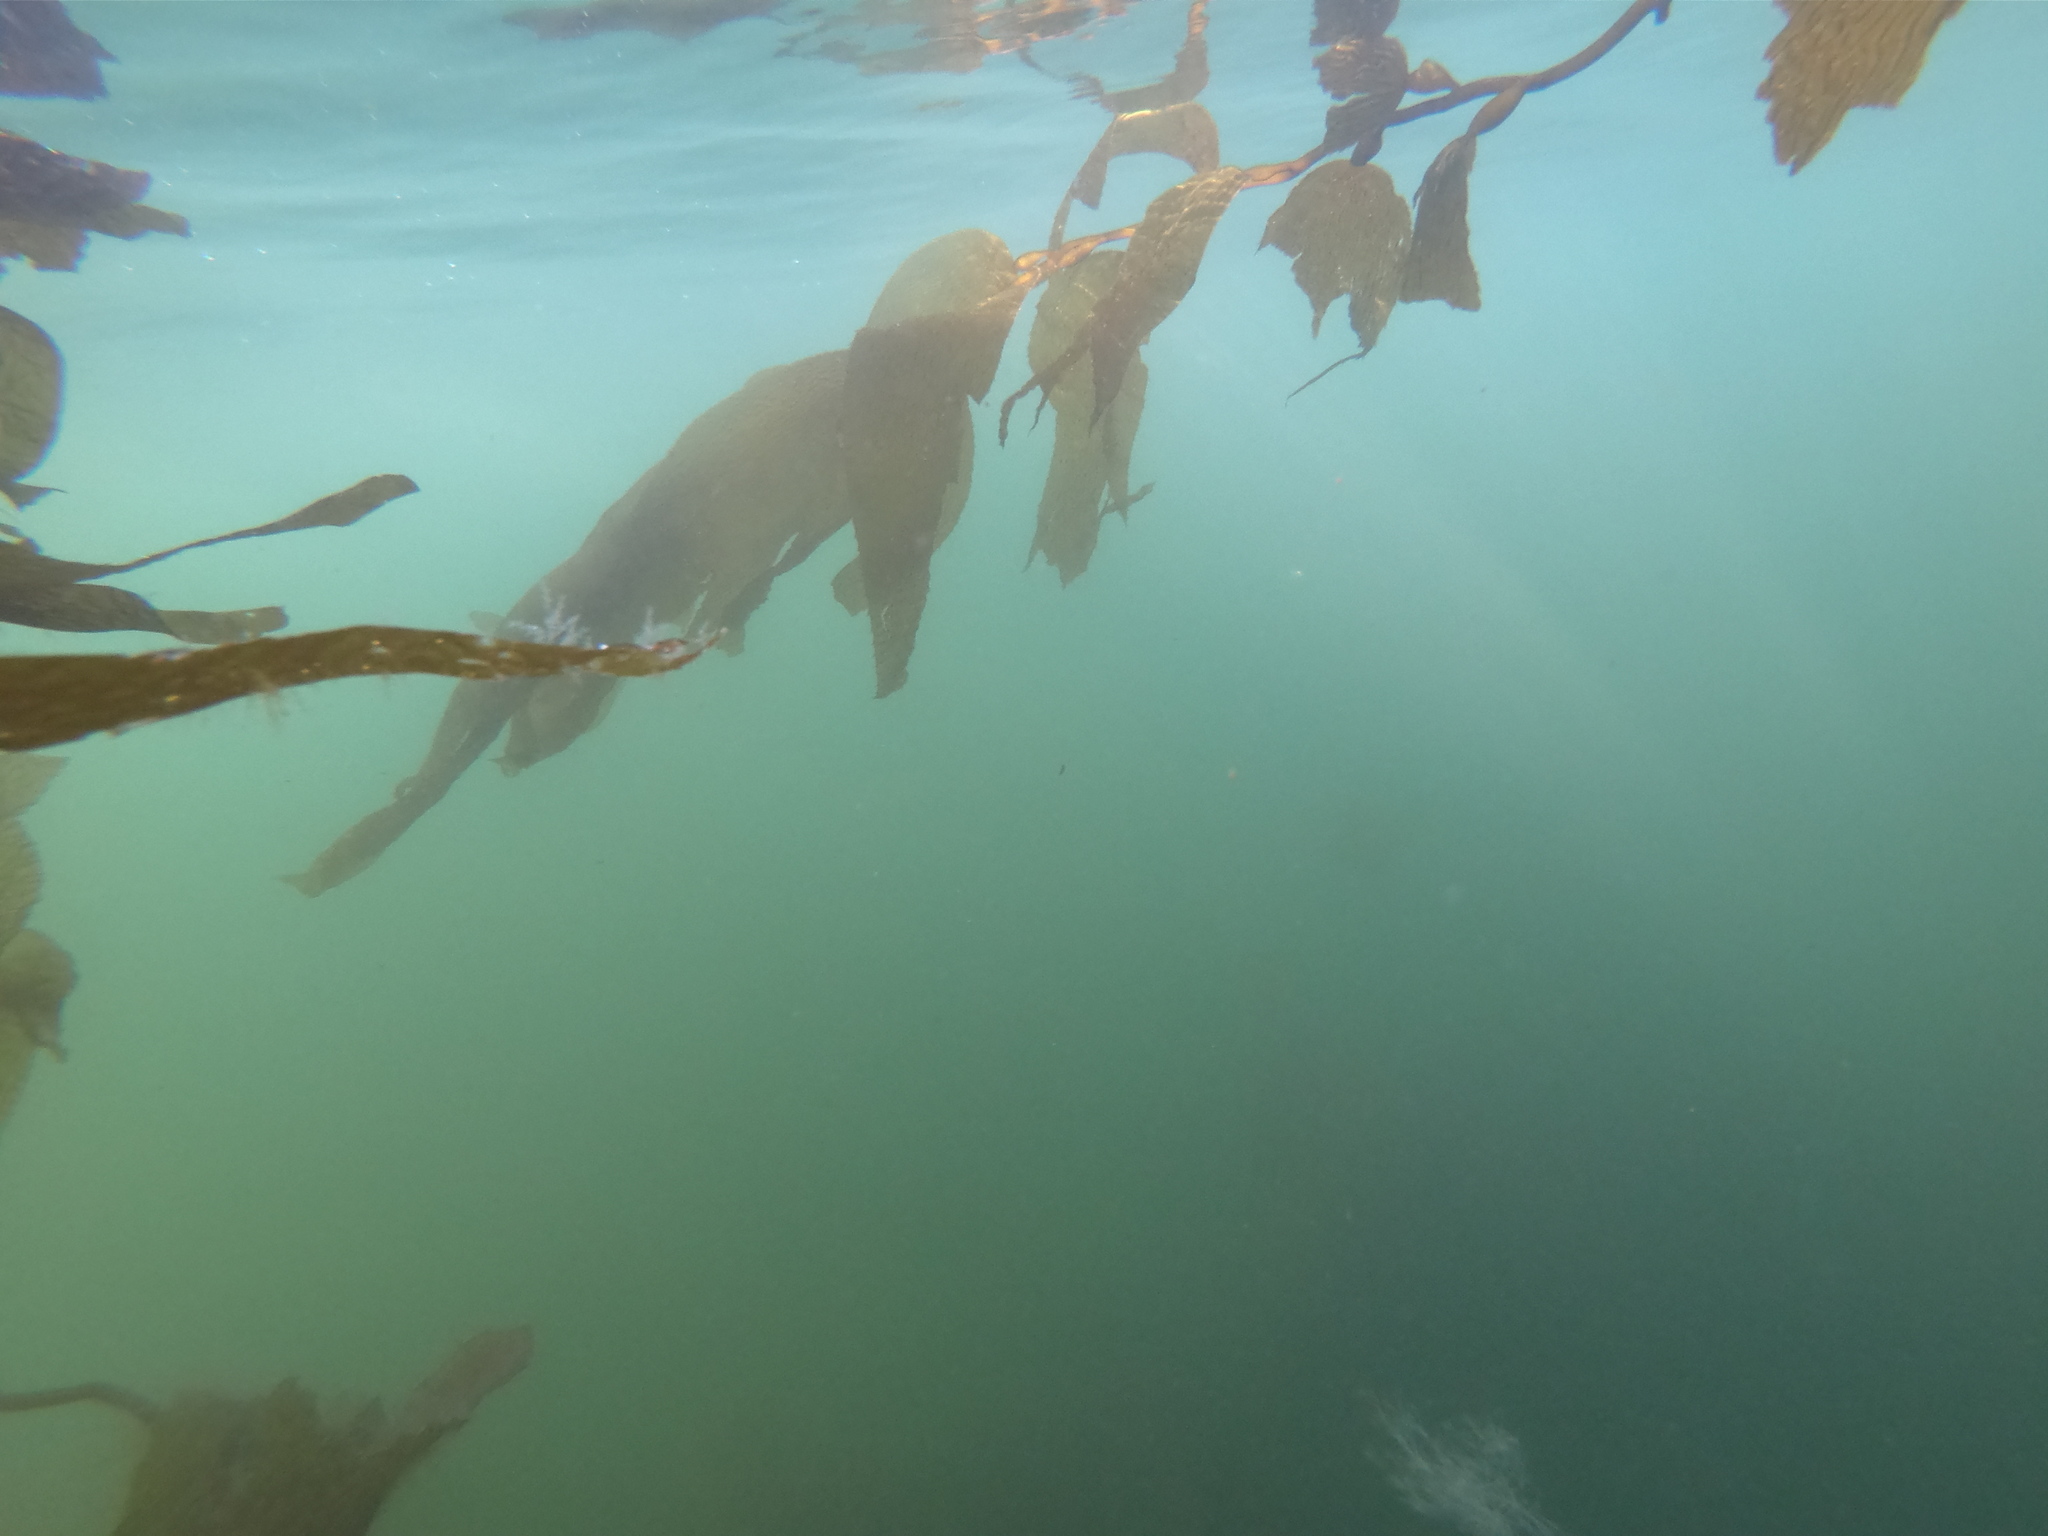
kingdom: Chromista
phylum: Ochrophyta
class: Phaeophyceae
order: Laminariales
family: Laminariaceae
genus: Macrocystis
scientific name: Macrocystis pyrifera
